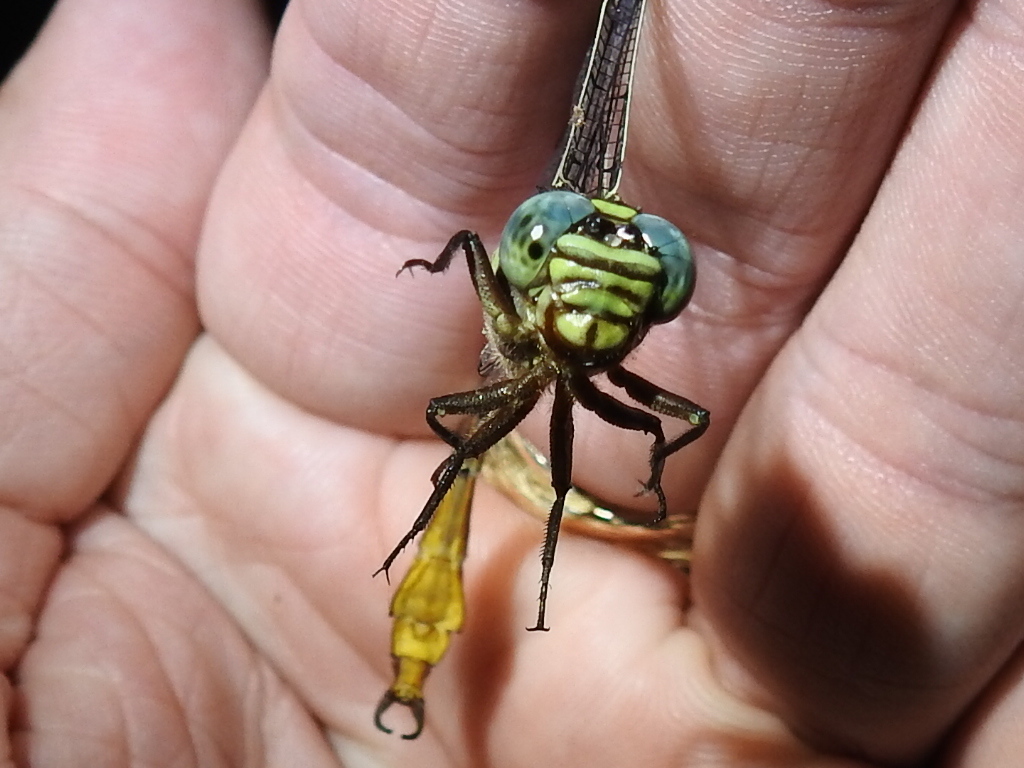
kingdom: Animalia
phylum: Arthropoda
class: Insecta
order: Odonata
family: Gomphidae
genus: Aphylla
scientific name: Aphylla angustifolia
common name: Broad-striped forceptail
